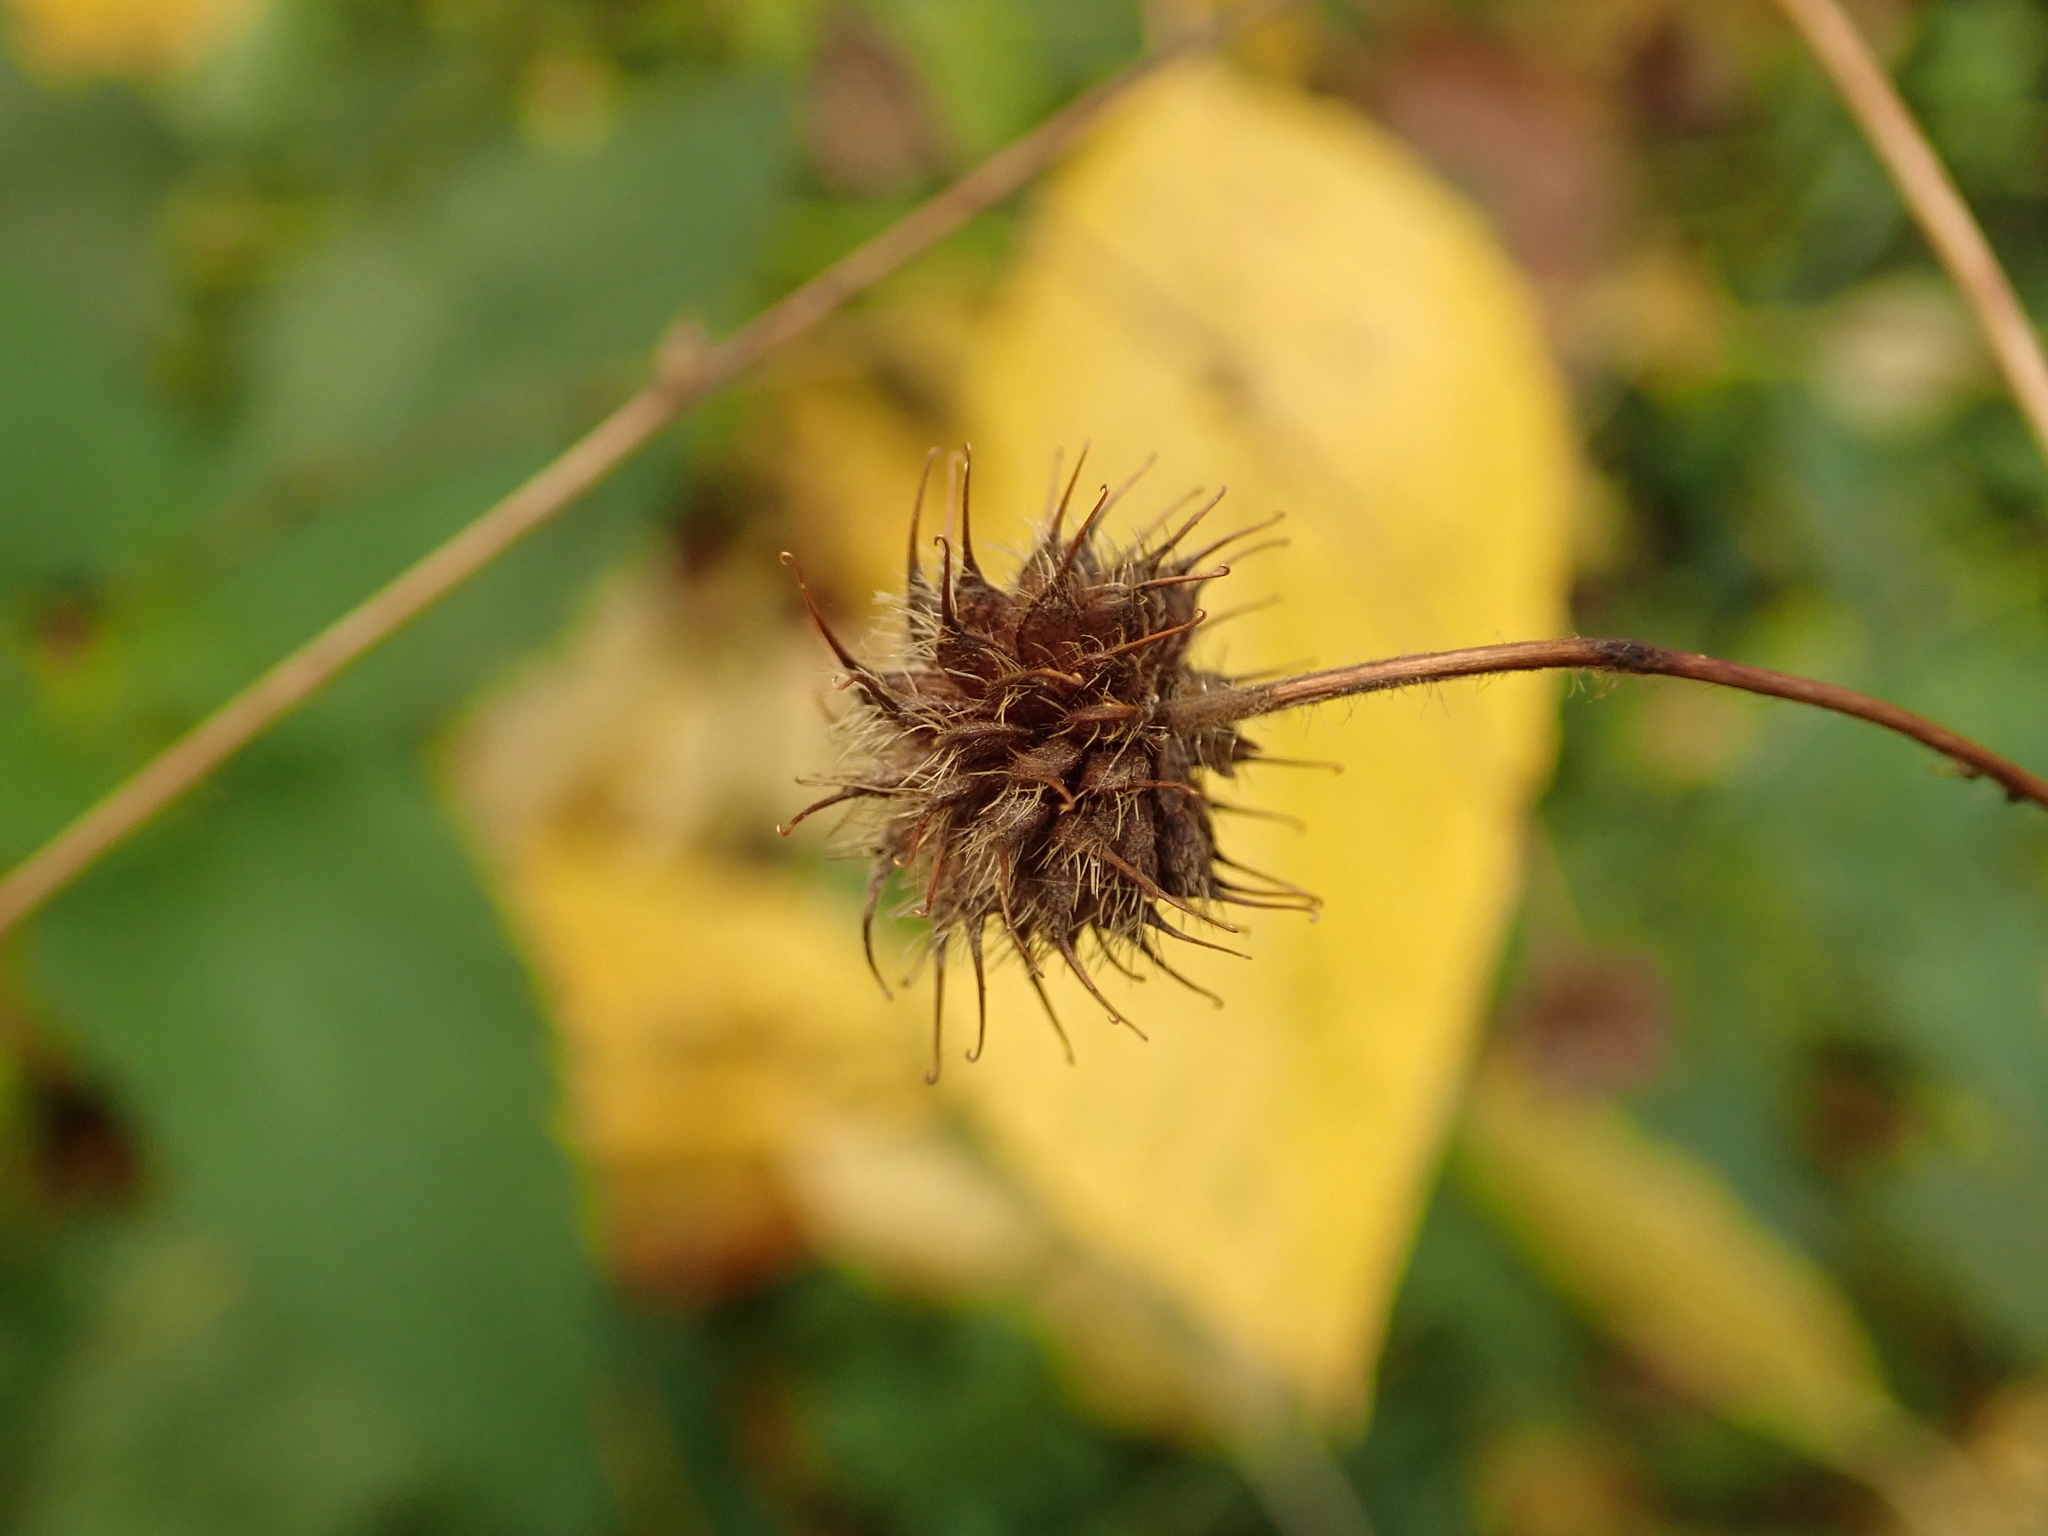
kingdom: Plantae
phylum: Tracheophyta
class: Magnoliopsida
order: Rosales
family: Rosaceae
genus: Geum
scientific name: Geum urbanum
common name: Wood avens
